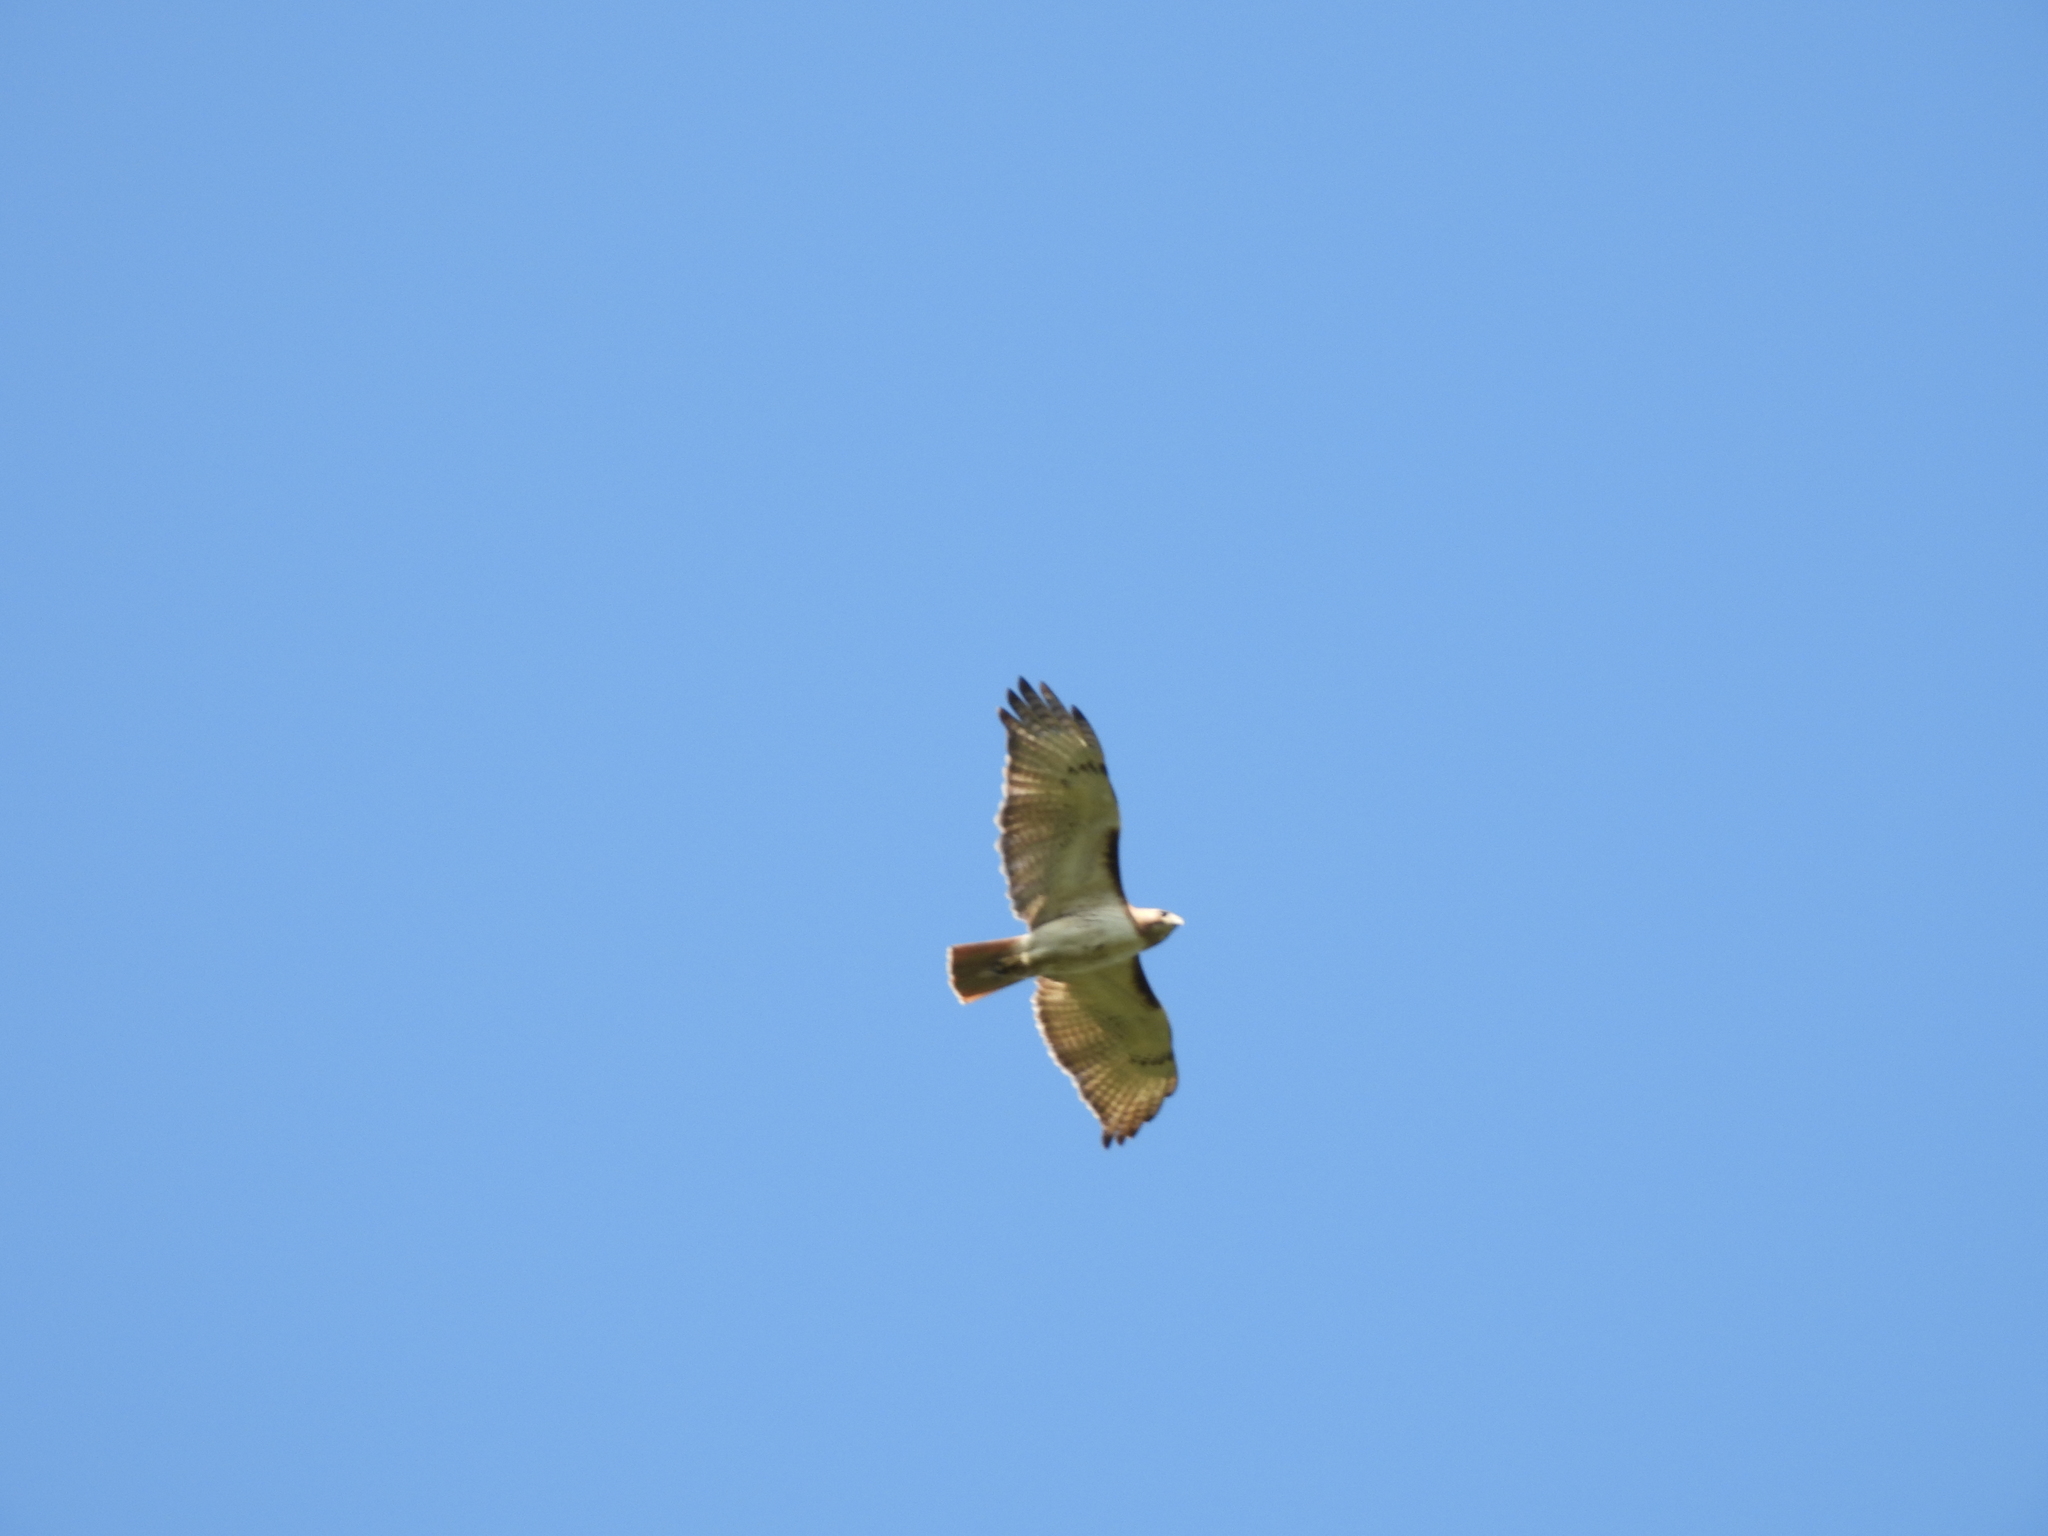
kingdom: Animalia
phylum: Chordata
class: Aves
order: Accipitriformes
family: Accipitridae
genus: Buteo
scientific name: Buteo jamaicensis
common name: Red-tailed hawk
